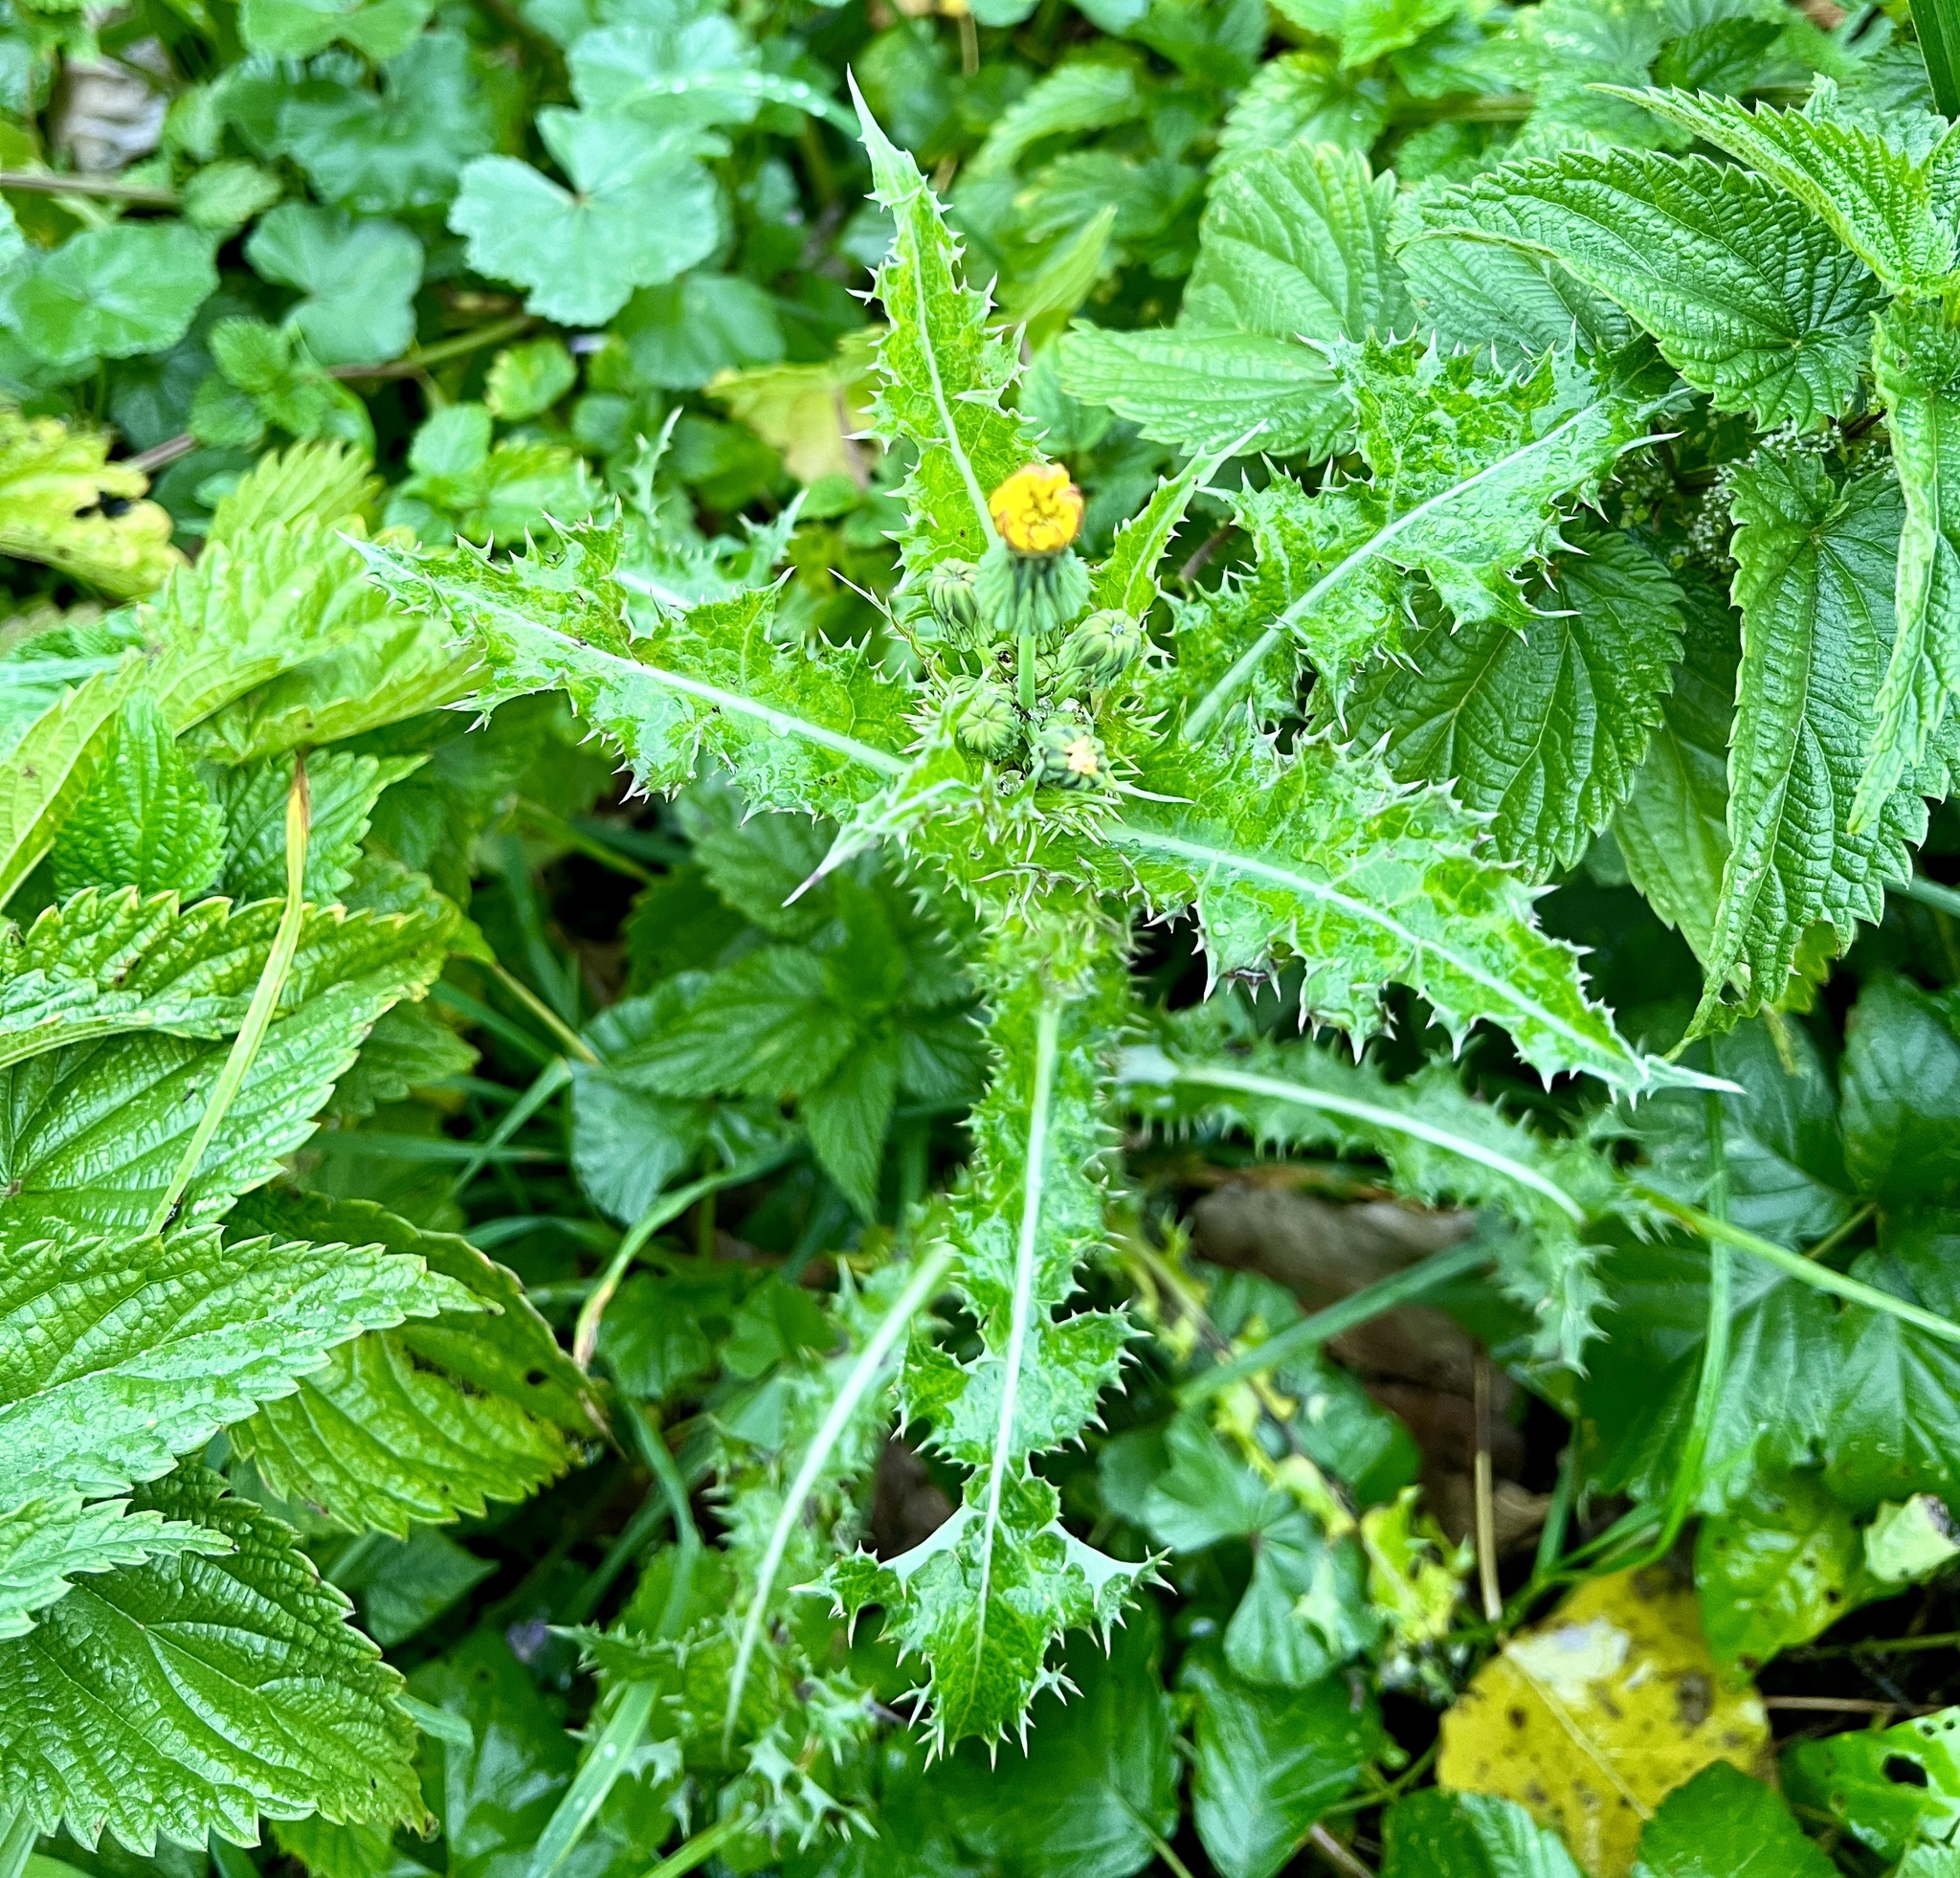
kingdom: Plantae
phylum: Tracheophyta
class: Magnoliopsida
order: Asterales
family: Asteraceae
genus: Sonchus
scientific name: Sonchus asper
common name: Prickly sow-thistle
